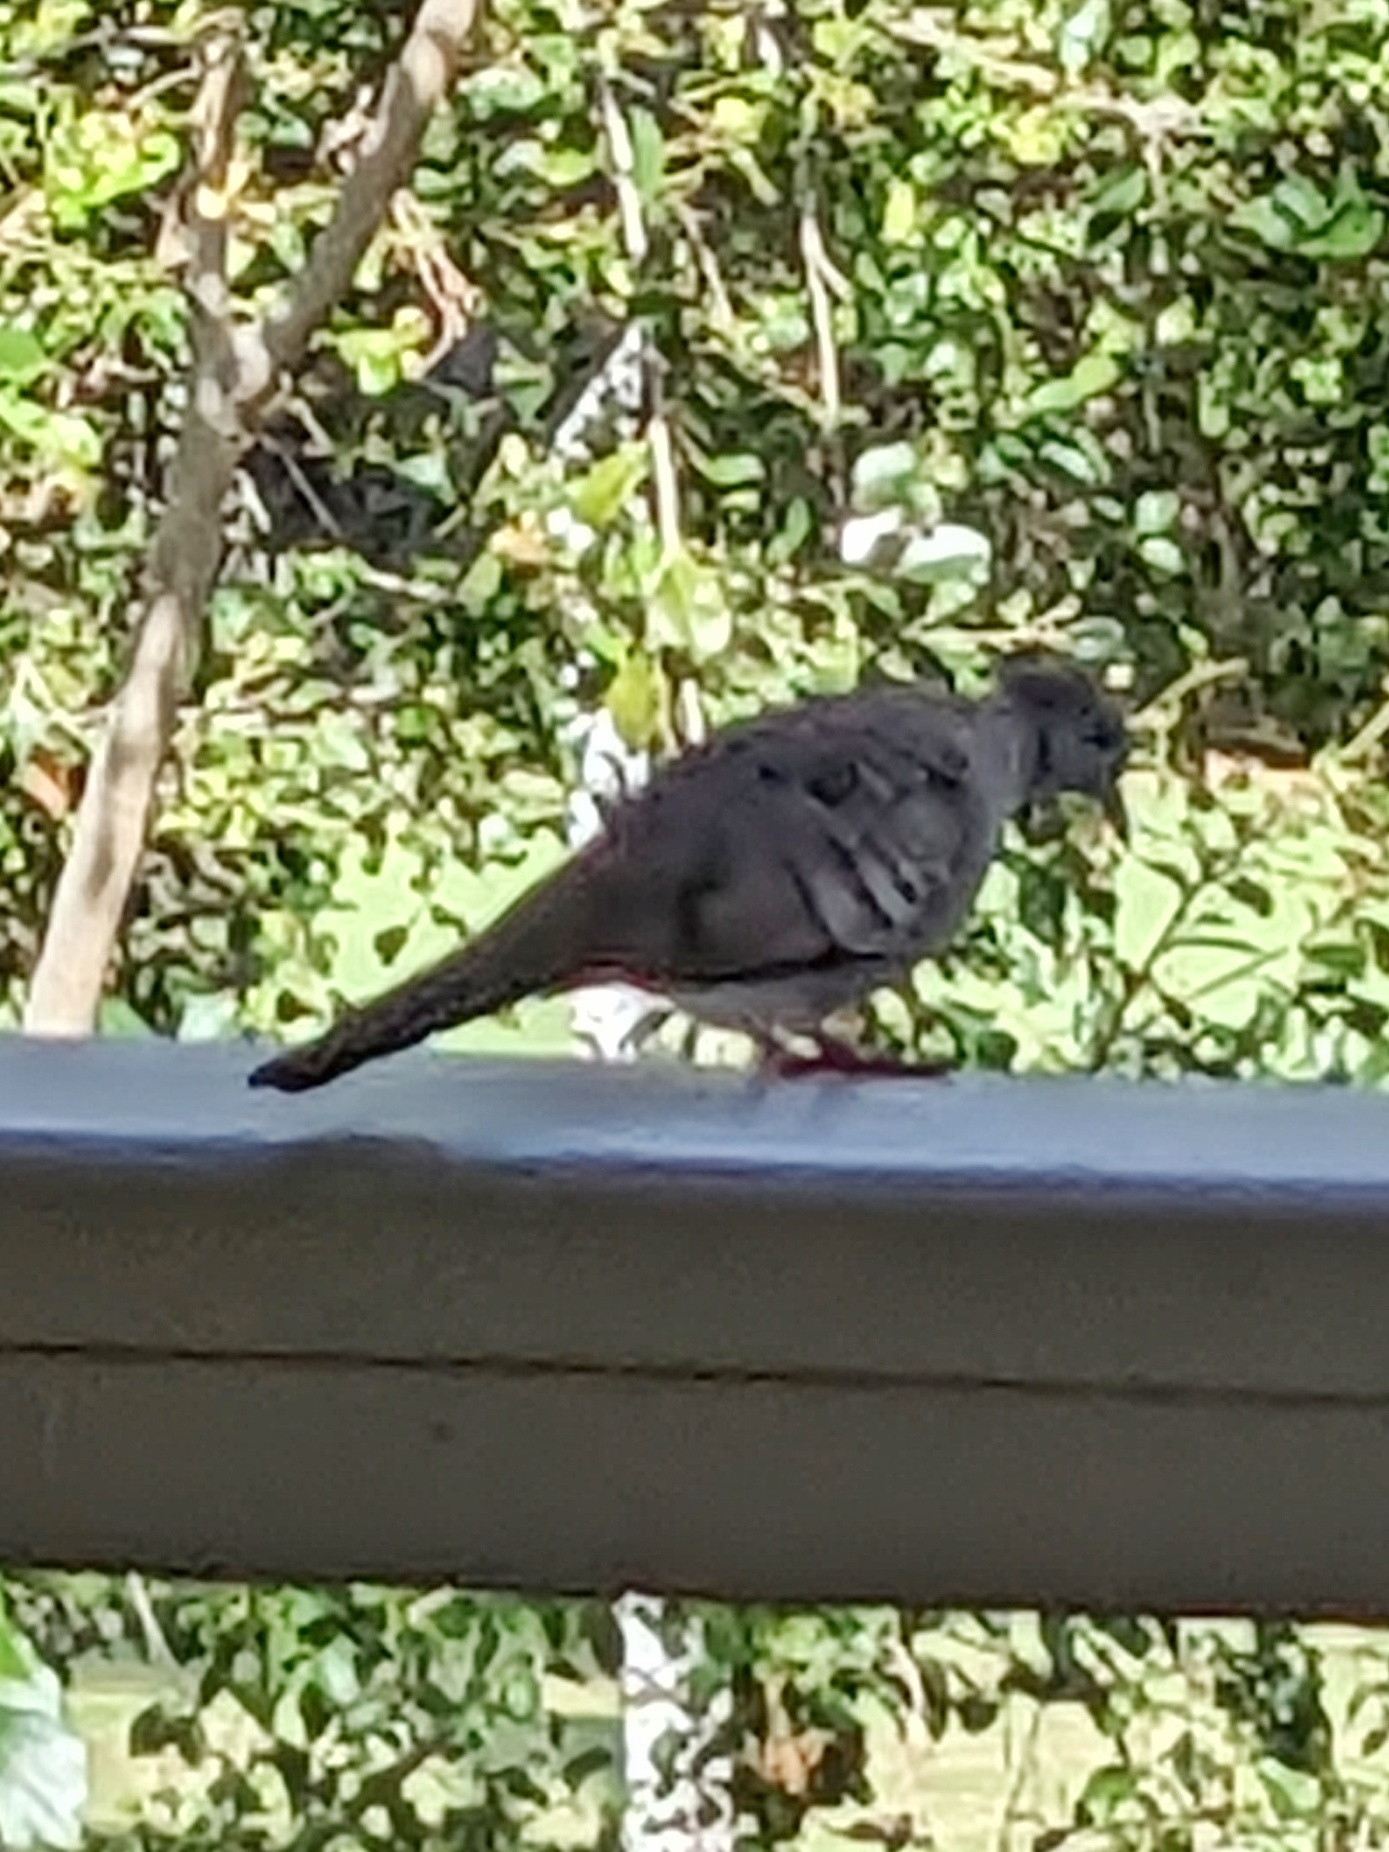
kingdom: Animalia
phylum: Chordata
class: Aves
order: Columbiformes
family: Columbidae
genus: Geopelia
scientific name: Geopelia striata
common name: Zebra dove
